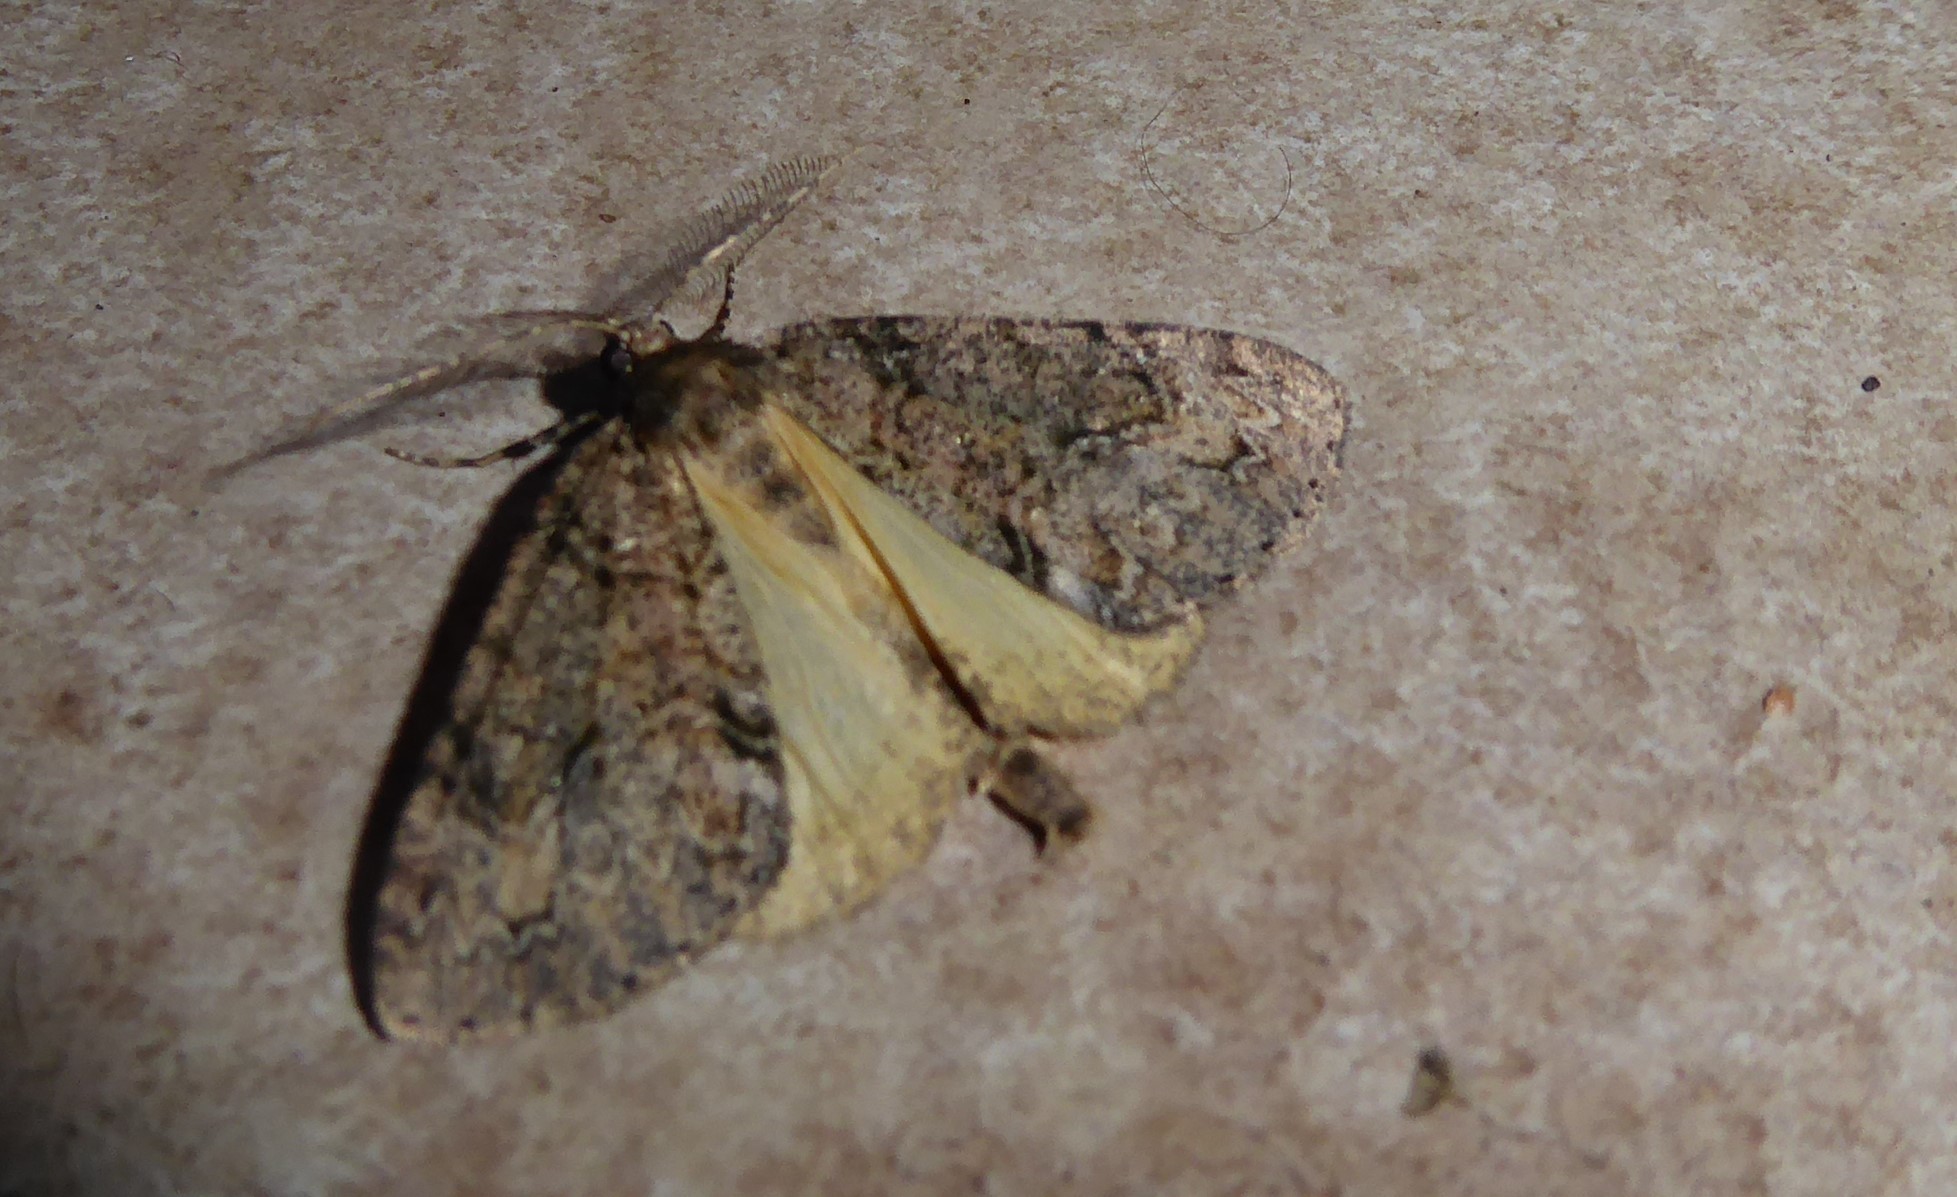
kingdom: Animalia
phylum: Arthropoda
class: Insecta
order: Lepidoptera
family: Geometridae
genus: Pseudocoremia
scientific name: Pseudocoremia suavis
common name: Common forest looper
